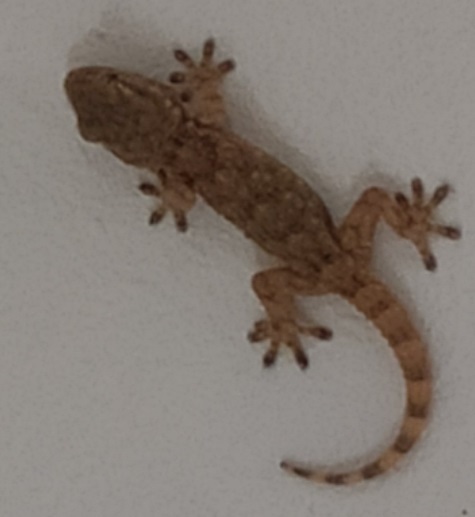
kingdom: Animalia
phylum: Chordata
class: Squamata
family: Phyllodactylidae
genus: Tarentola
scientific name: Tarentola mauritanica
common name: Moorish gecko
